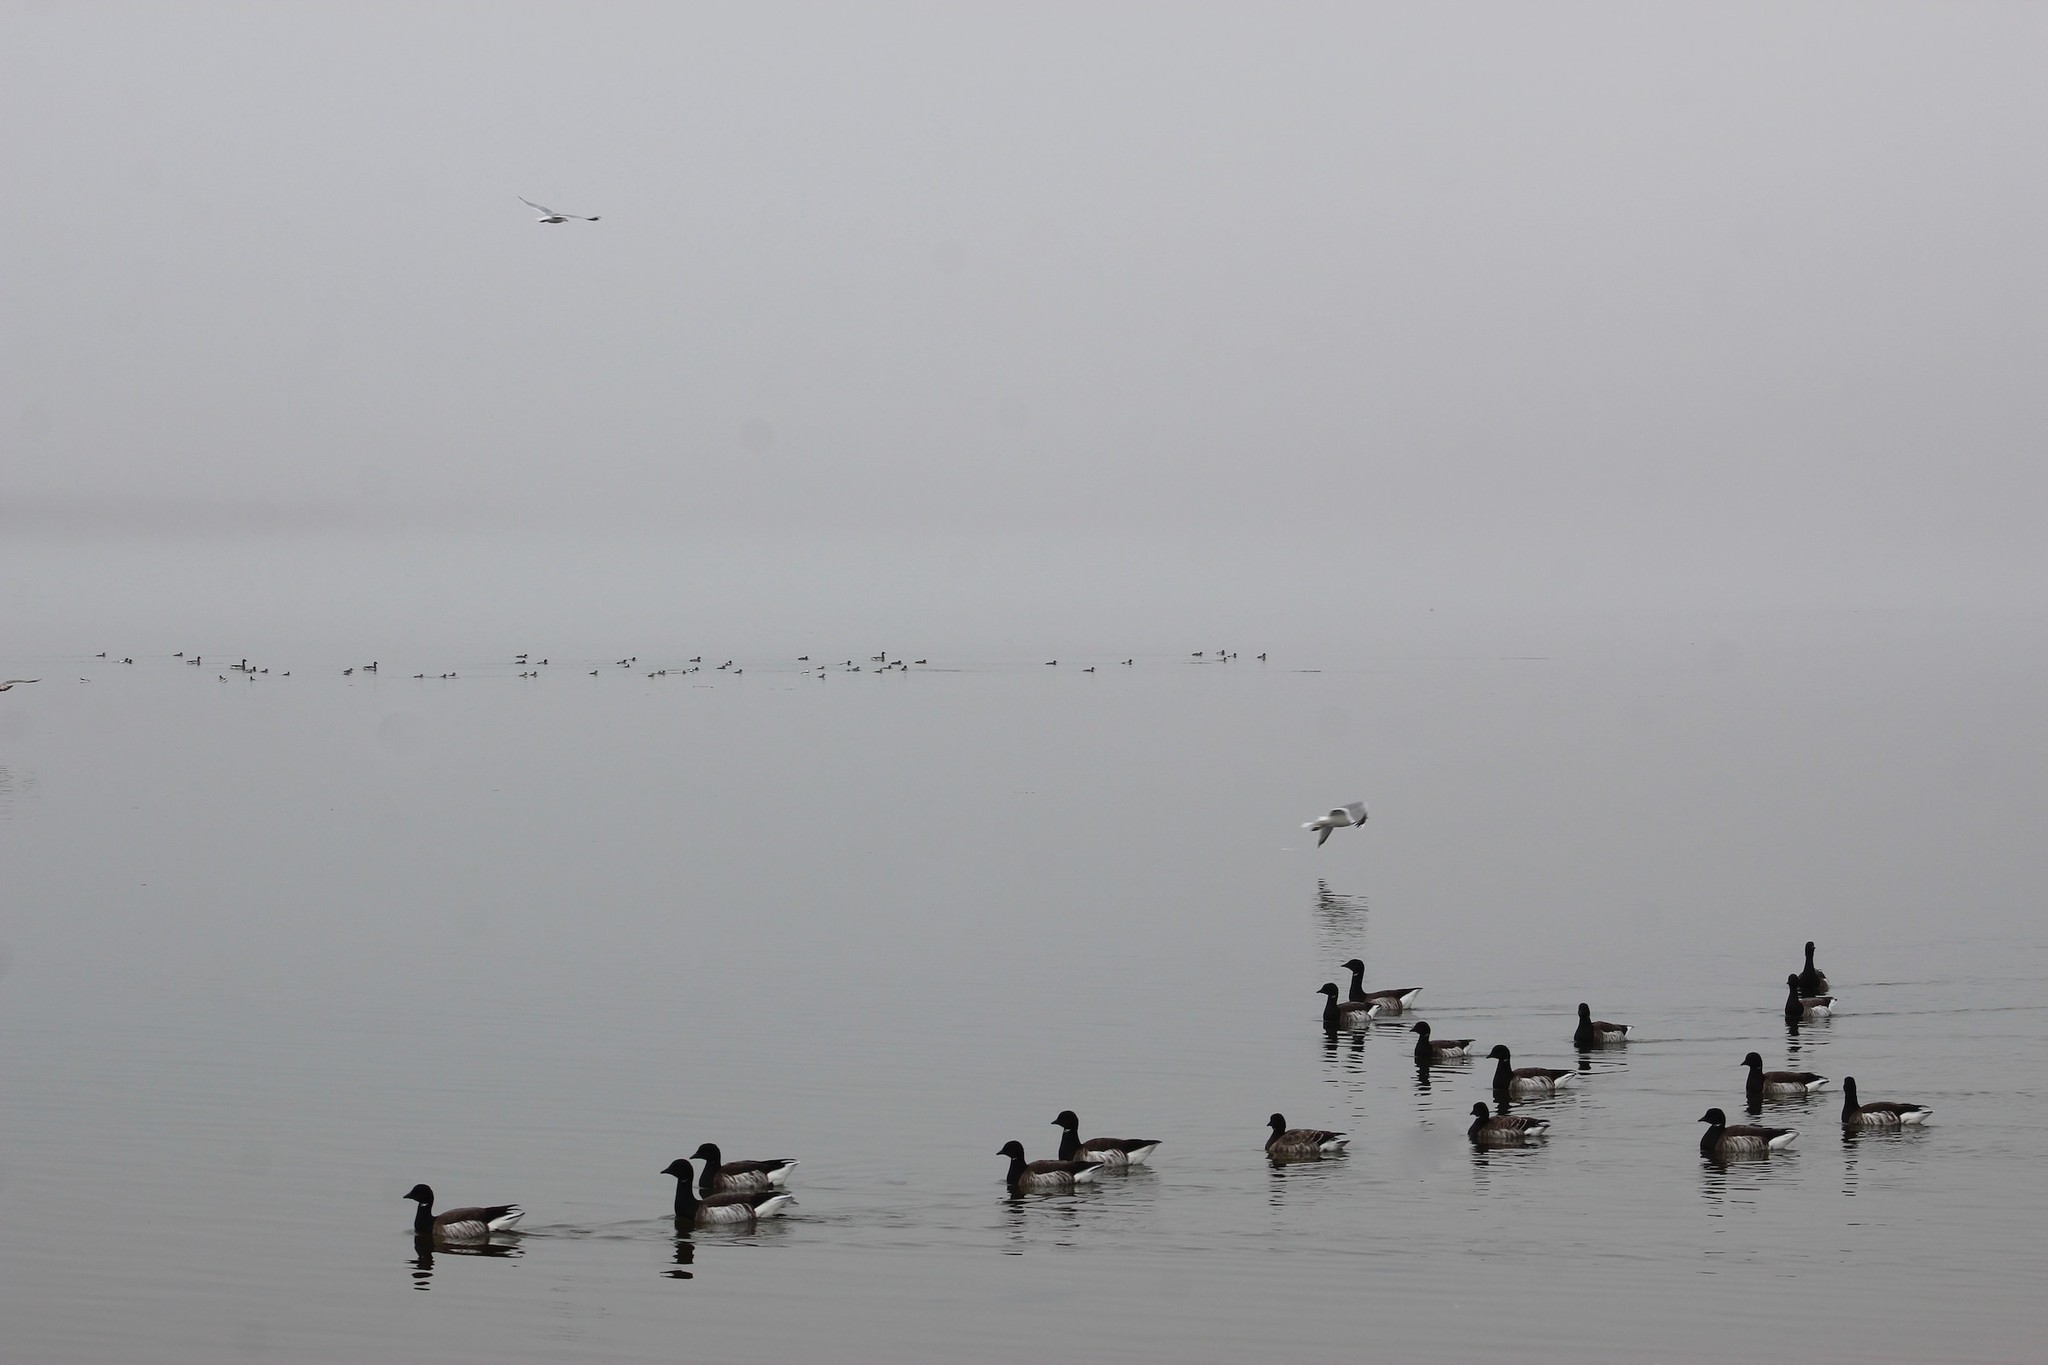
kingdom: Animalia
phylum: Chordata
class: Aves
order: Anseriformes
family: Anatidae
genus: Branta
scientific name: Branta bernicla
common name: Brant goose
